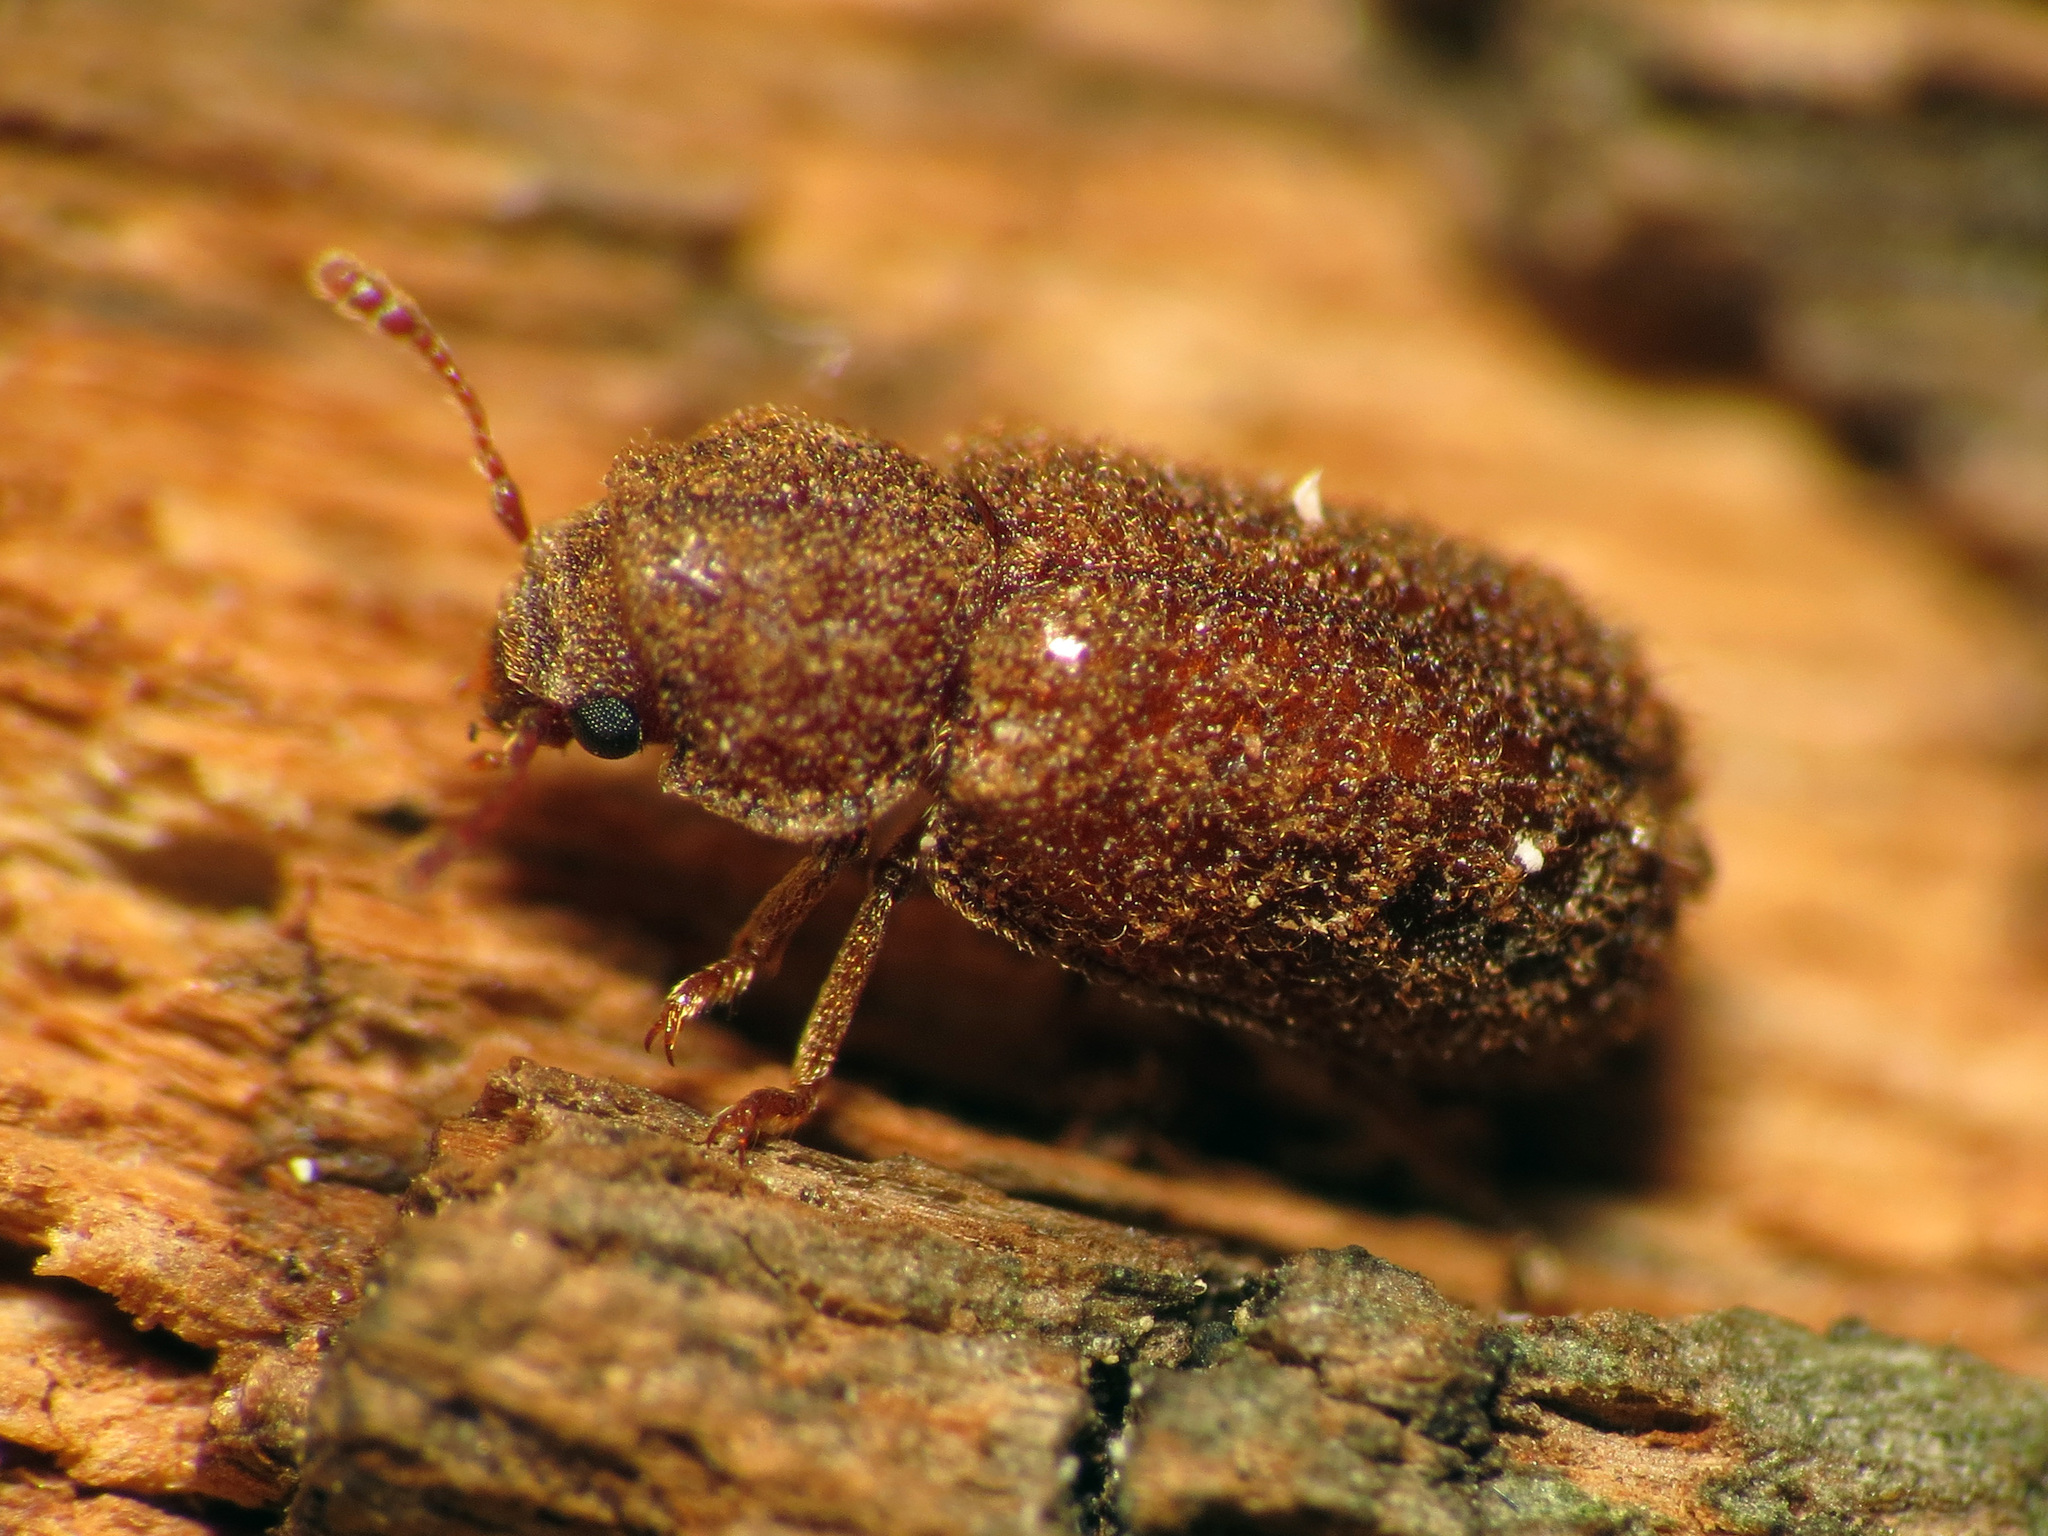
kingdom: Animalia
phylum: Arthropoda
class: Insecta
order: Coleoptera
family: Bostrichidae
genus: Endecatomus
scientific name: Endecatomus rugosus
